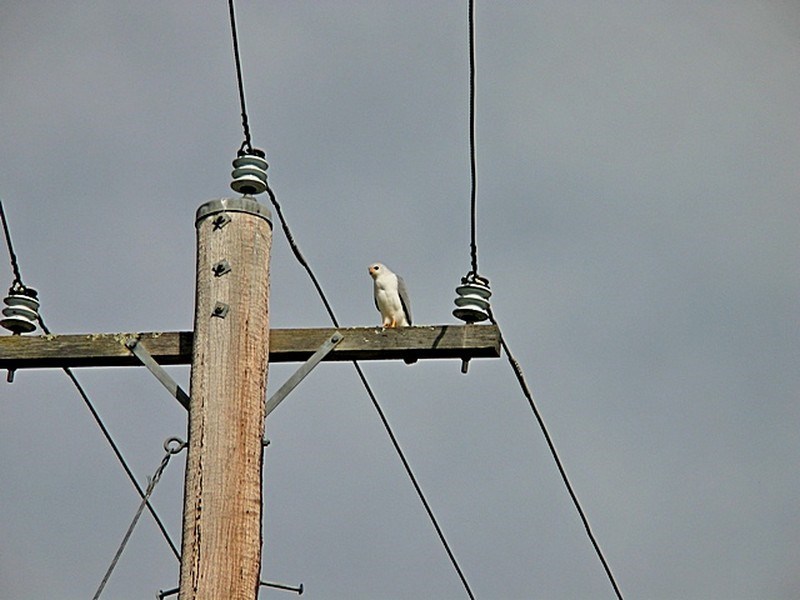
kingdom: Animalia
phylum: Chordata
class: Aves
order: Accipitriformes
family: Accipitridae
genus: Accipiter
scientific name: Accipiter novaehollandiae
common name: Grey goshawk
